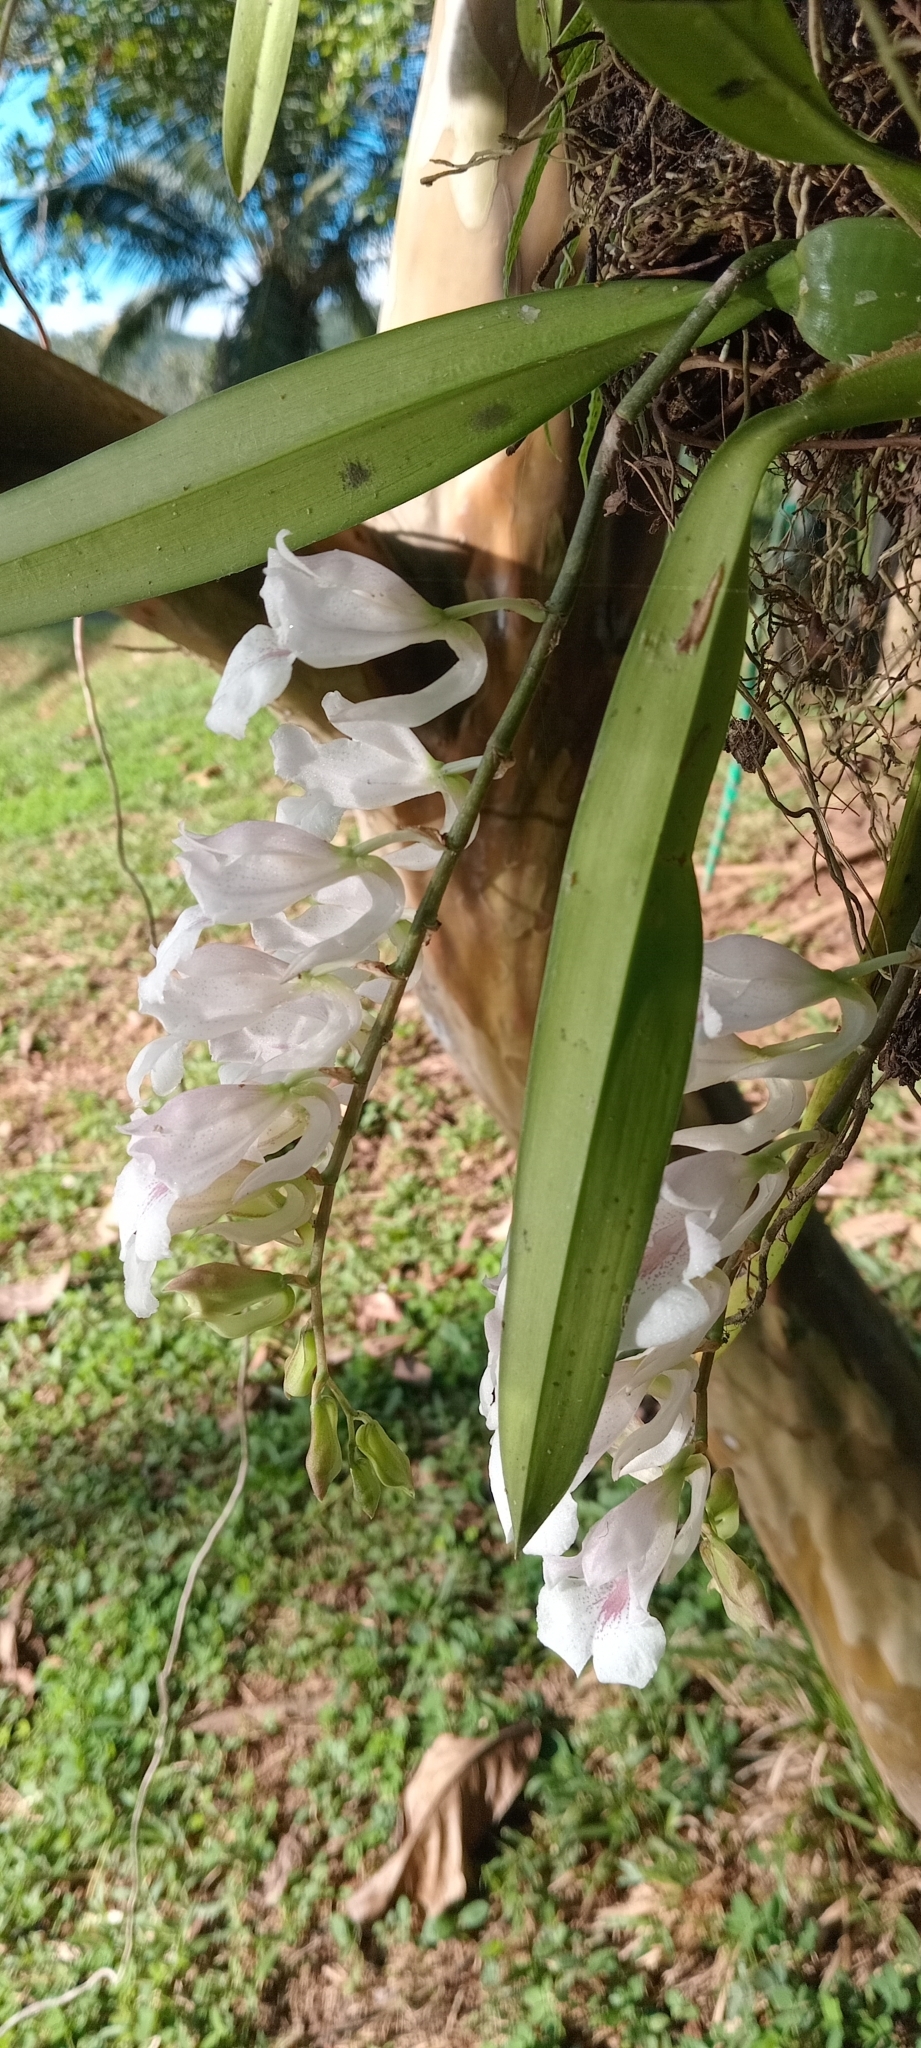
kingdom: Plantae
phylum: Tracheophyta
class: Liliopsida
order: Asparagales
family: Orchidaceae
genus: Rodriguezia
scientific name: Rodriguezia batemanii
